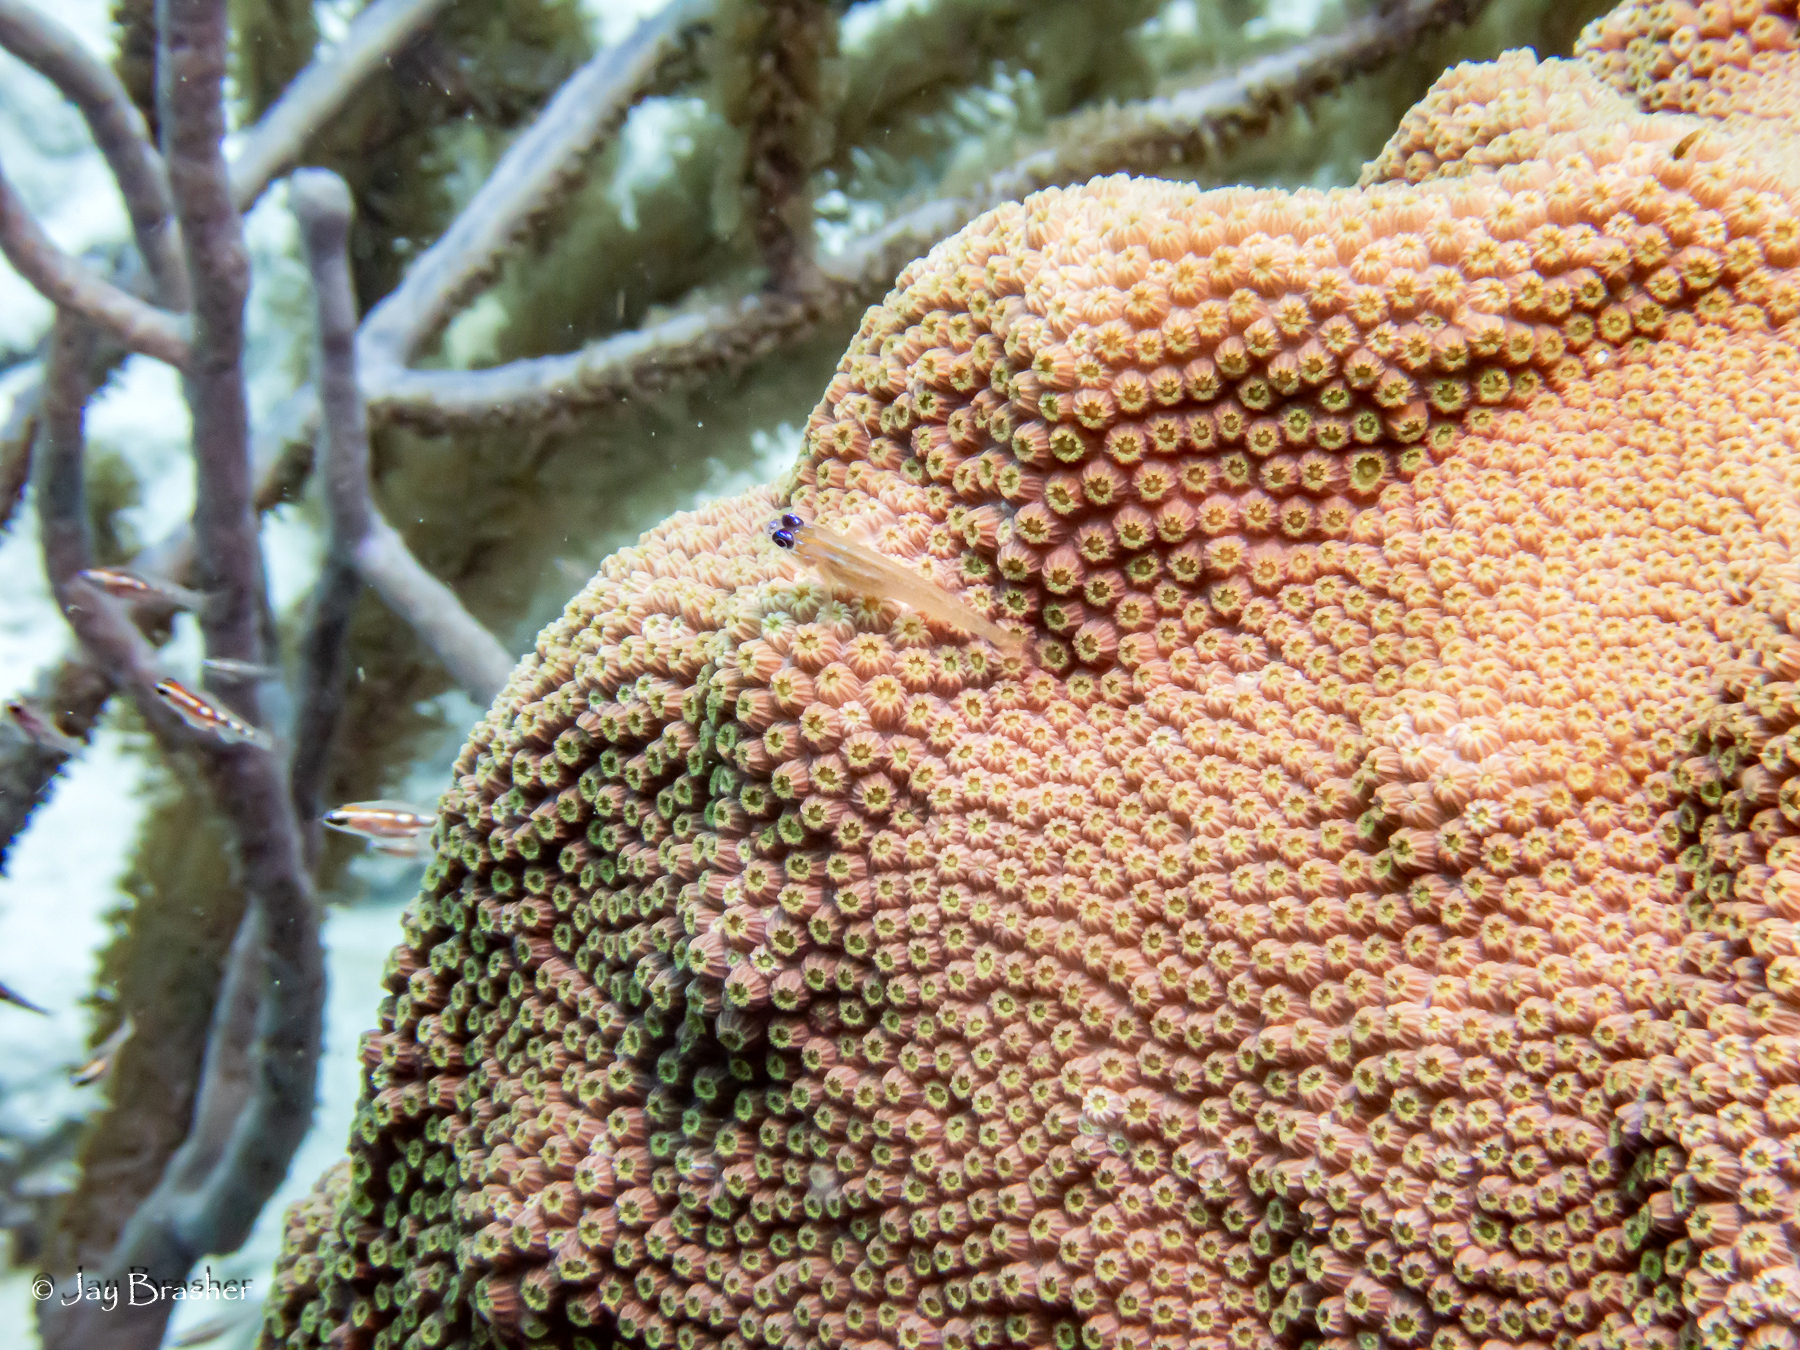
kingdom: Animalia
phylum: Cnidaria
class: Anthozoa
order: Scleractinia
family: Merulinidae
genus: Orbicella
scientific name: Orbicella faveolata
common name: Mountainous star coral
